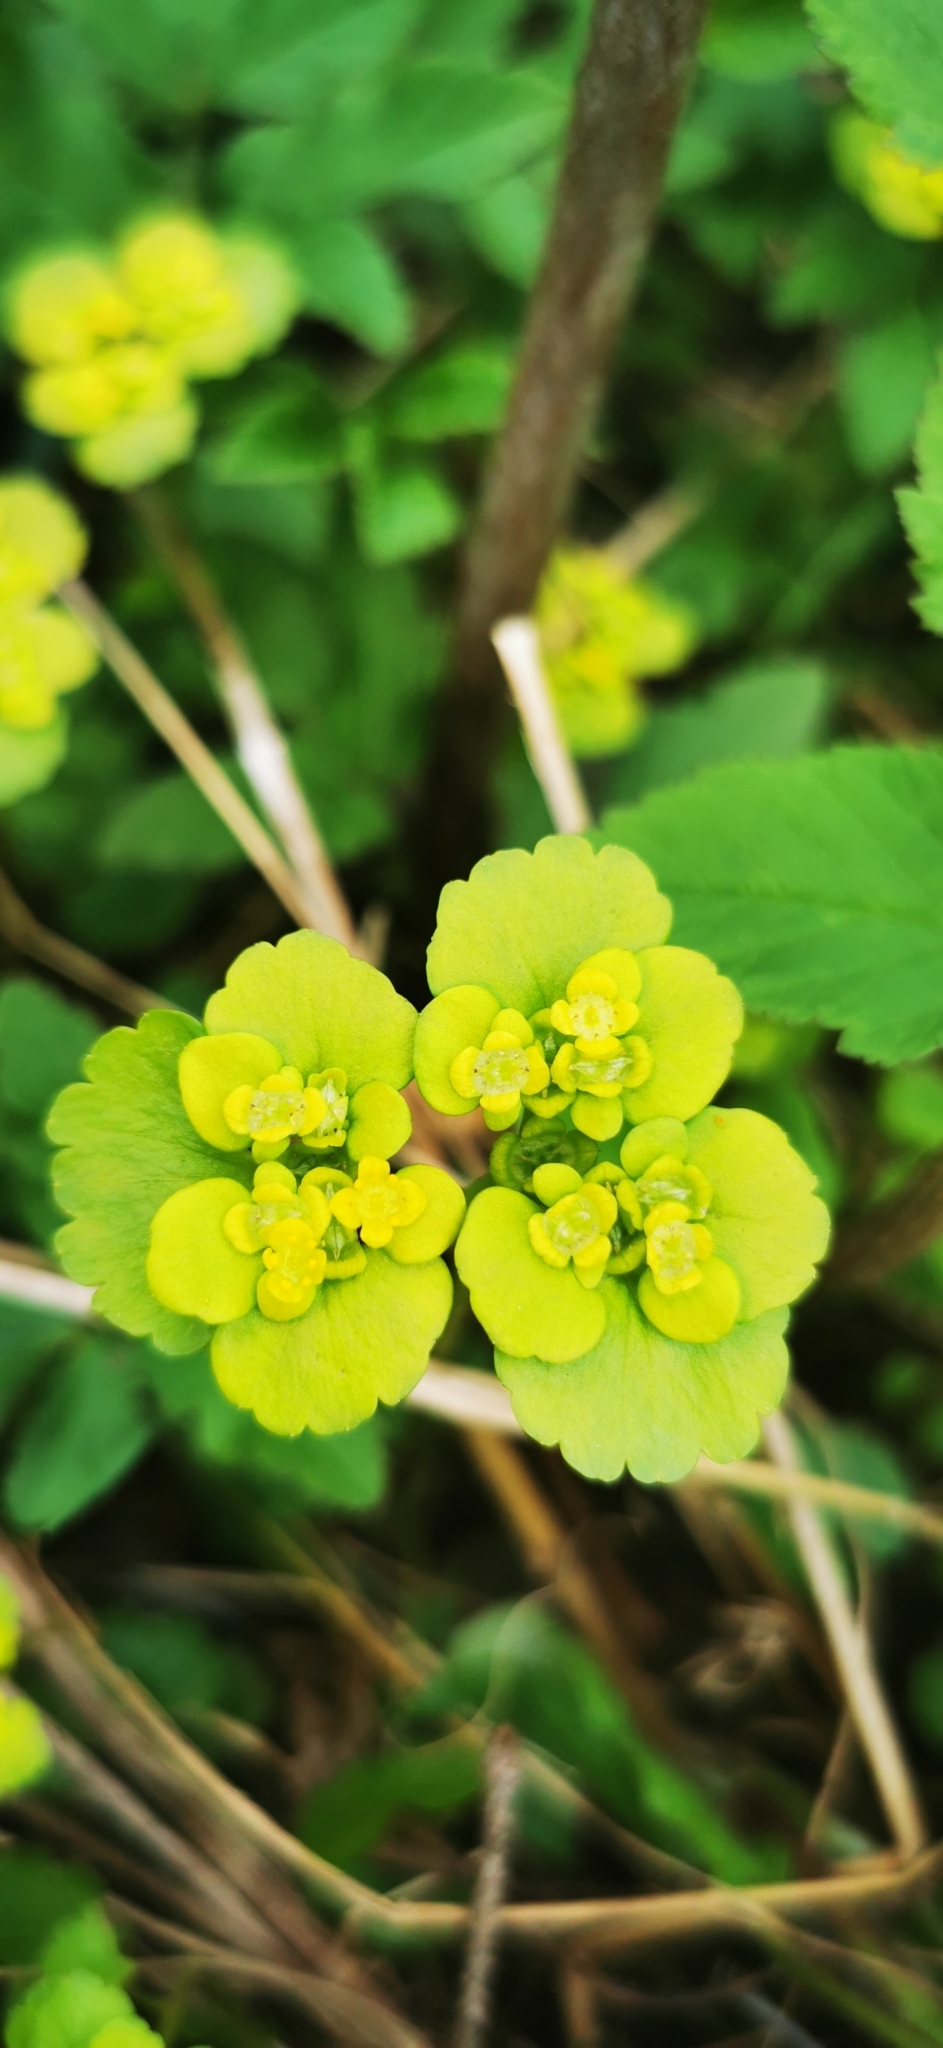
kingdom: Plantae
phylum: Tracheophyta
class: Magnoliopsida
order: Saxifragales
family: Saxifragaceae
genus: Chrysosplenium
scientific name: Chrysosplenium alternifolium
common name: Alternate-leaved golden-saxifrage
